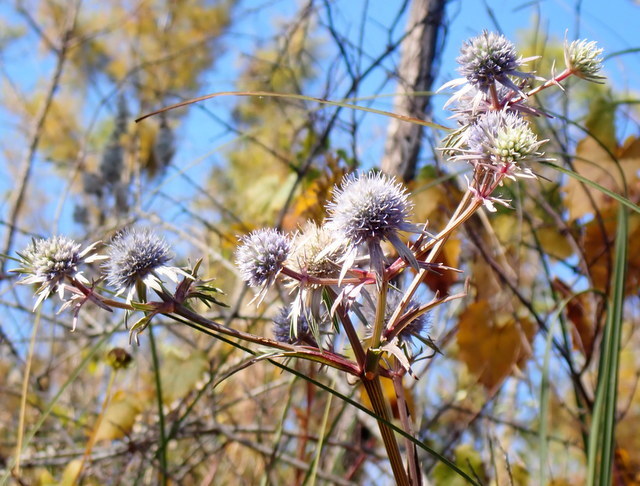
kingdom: Plantae
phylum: Tracheophyta
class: Magnoliopsida
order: Apiales
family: Apiaceae
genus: Eryngium
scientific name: Eryngium integrifolium
